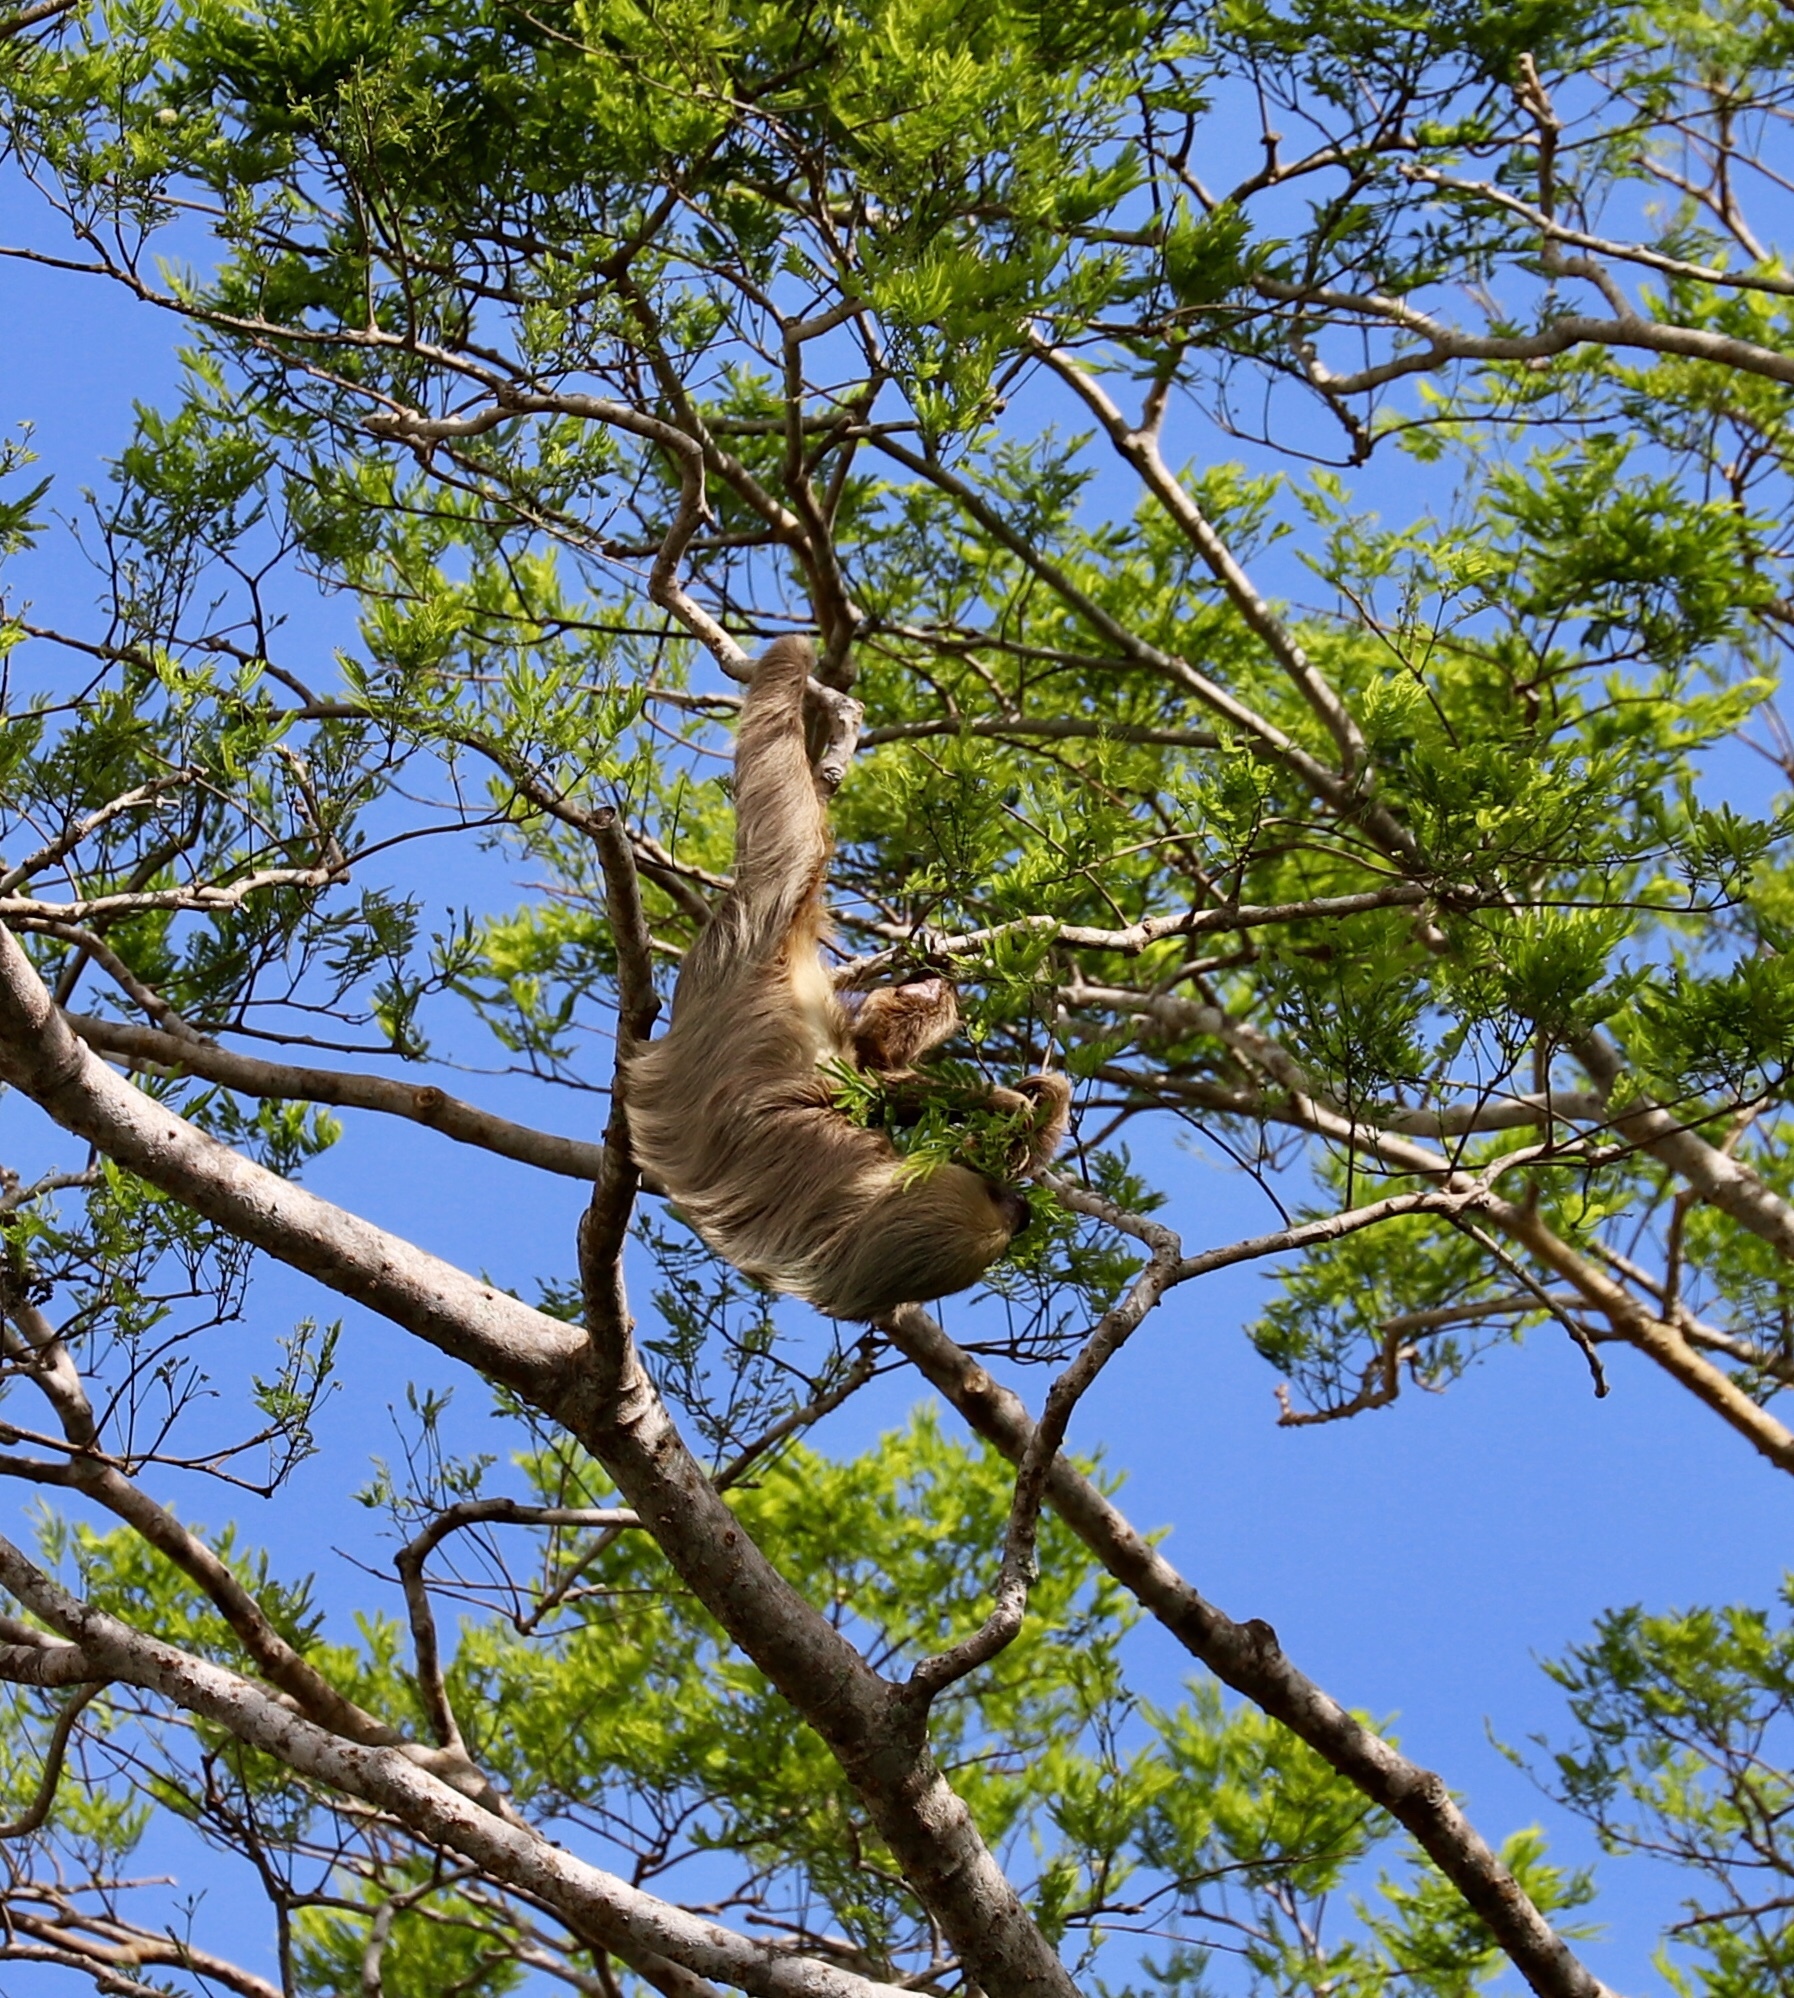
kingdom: Animalia
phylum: Chordata
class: Mammalia
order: Pilosa
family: Megalonychidae
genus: Choloepus
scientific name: Choloepus hoffmanni
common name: Hoffmann's two-toed sloth
